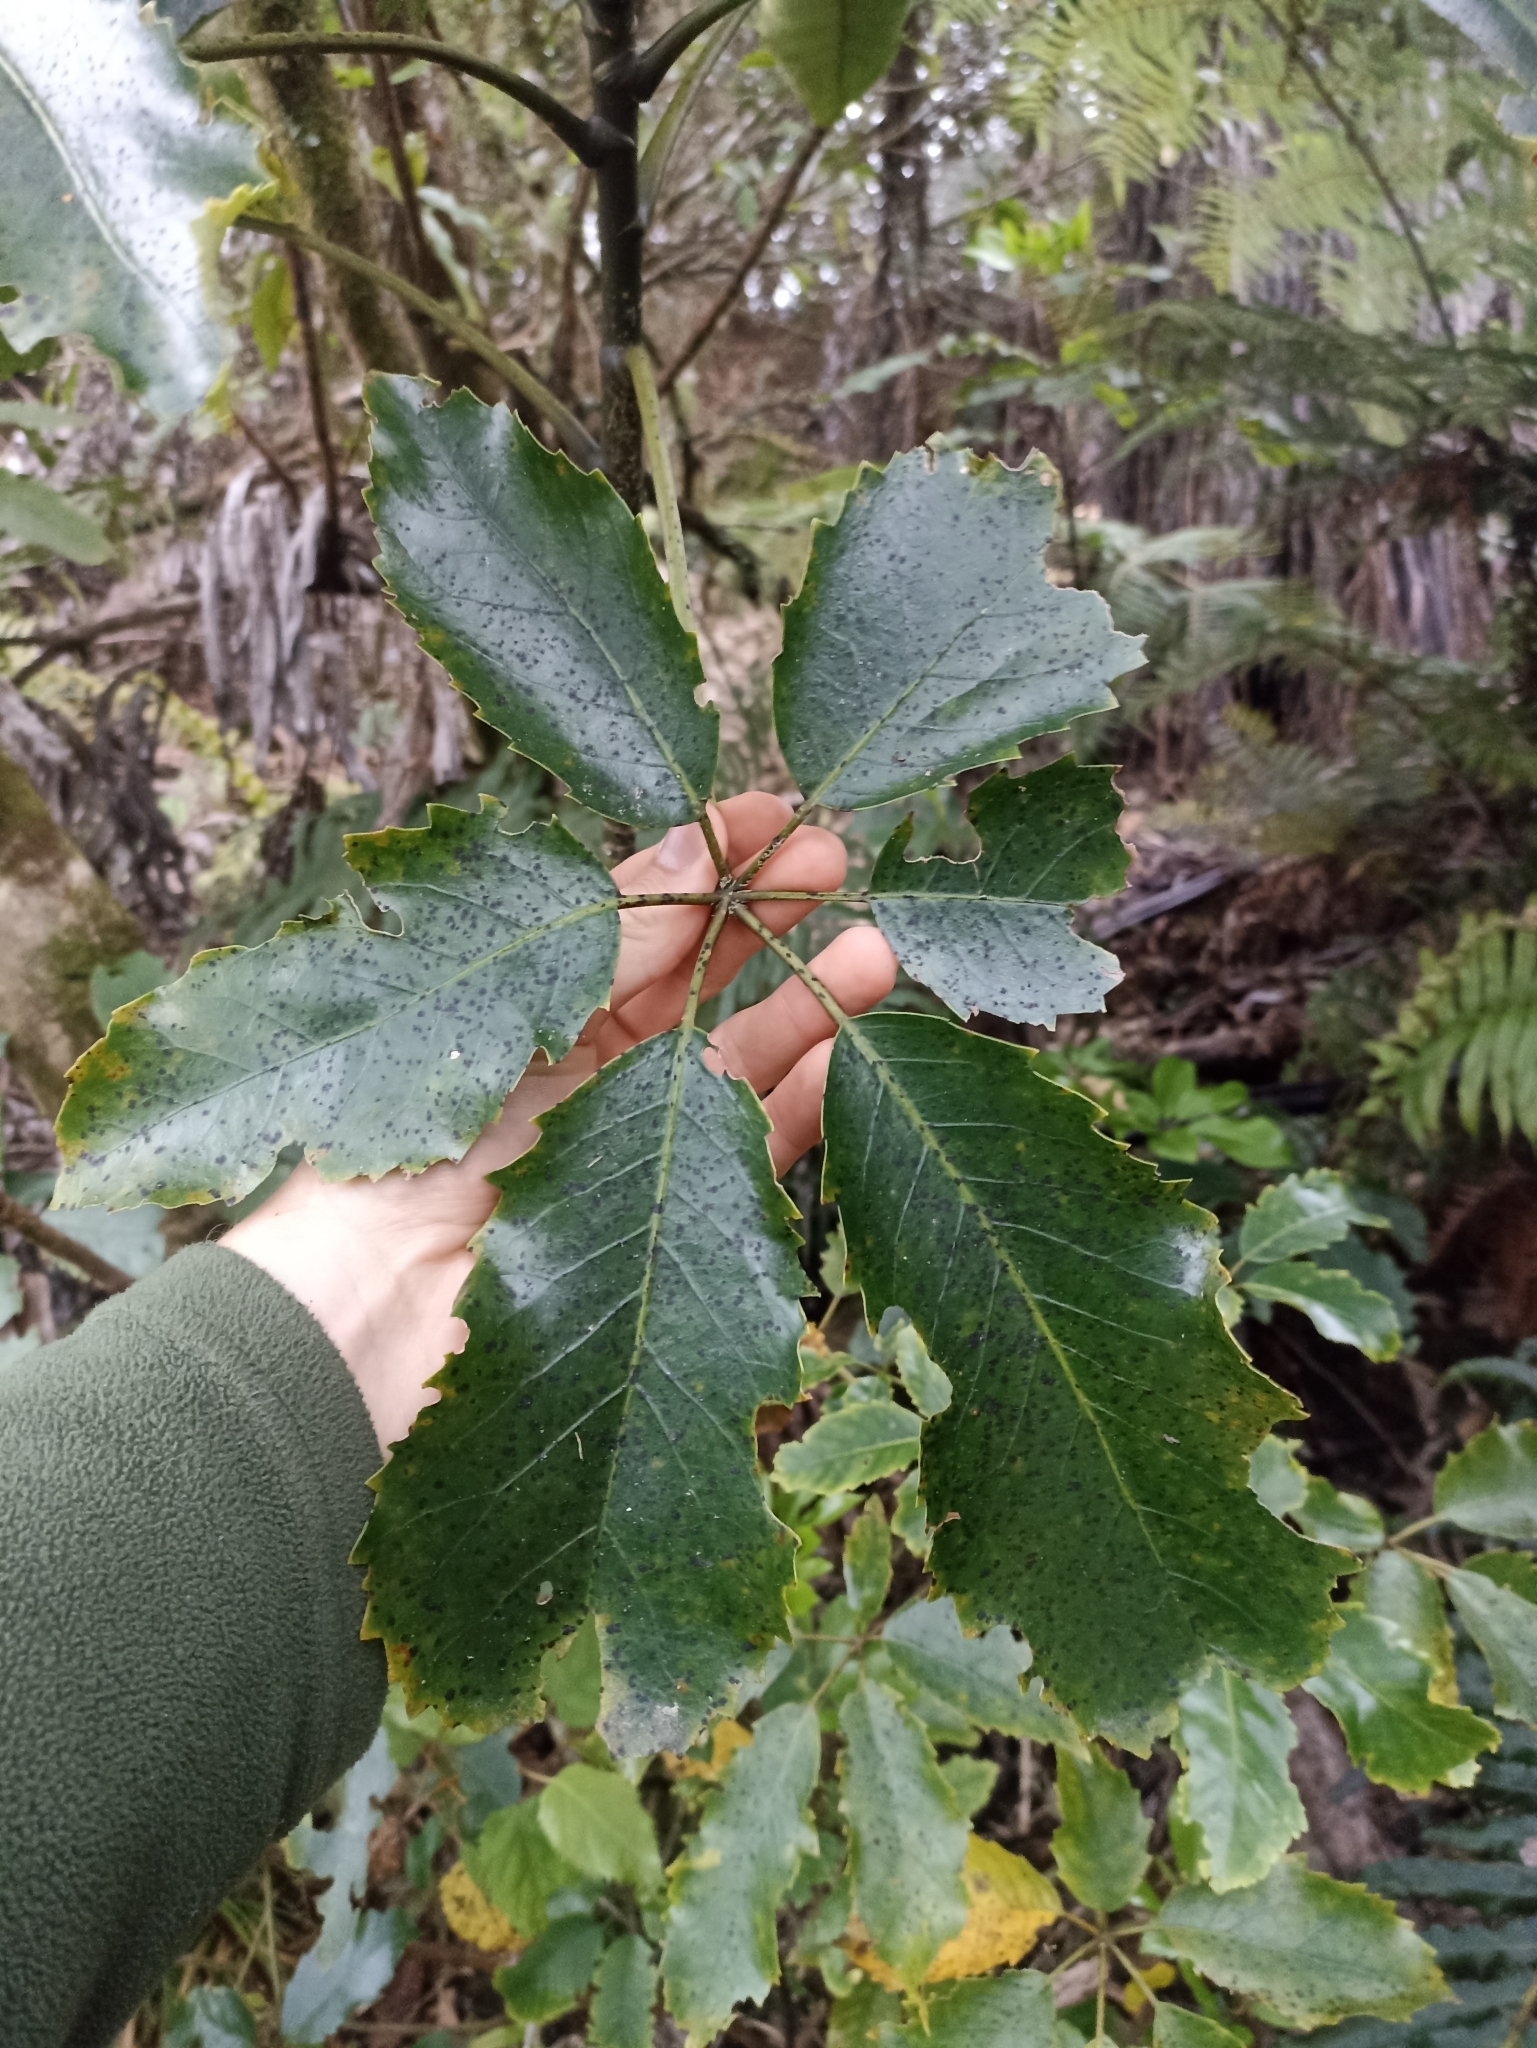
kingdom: Plantae
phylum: Tracheophyta
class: Magnoliopsida
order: Apiales
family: Araliaceae
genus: Neopanax
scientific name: Neopanax arboreus
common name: Five-fingers
